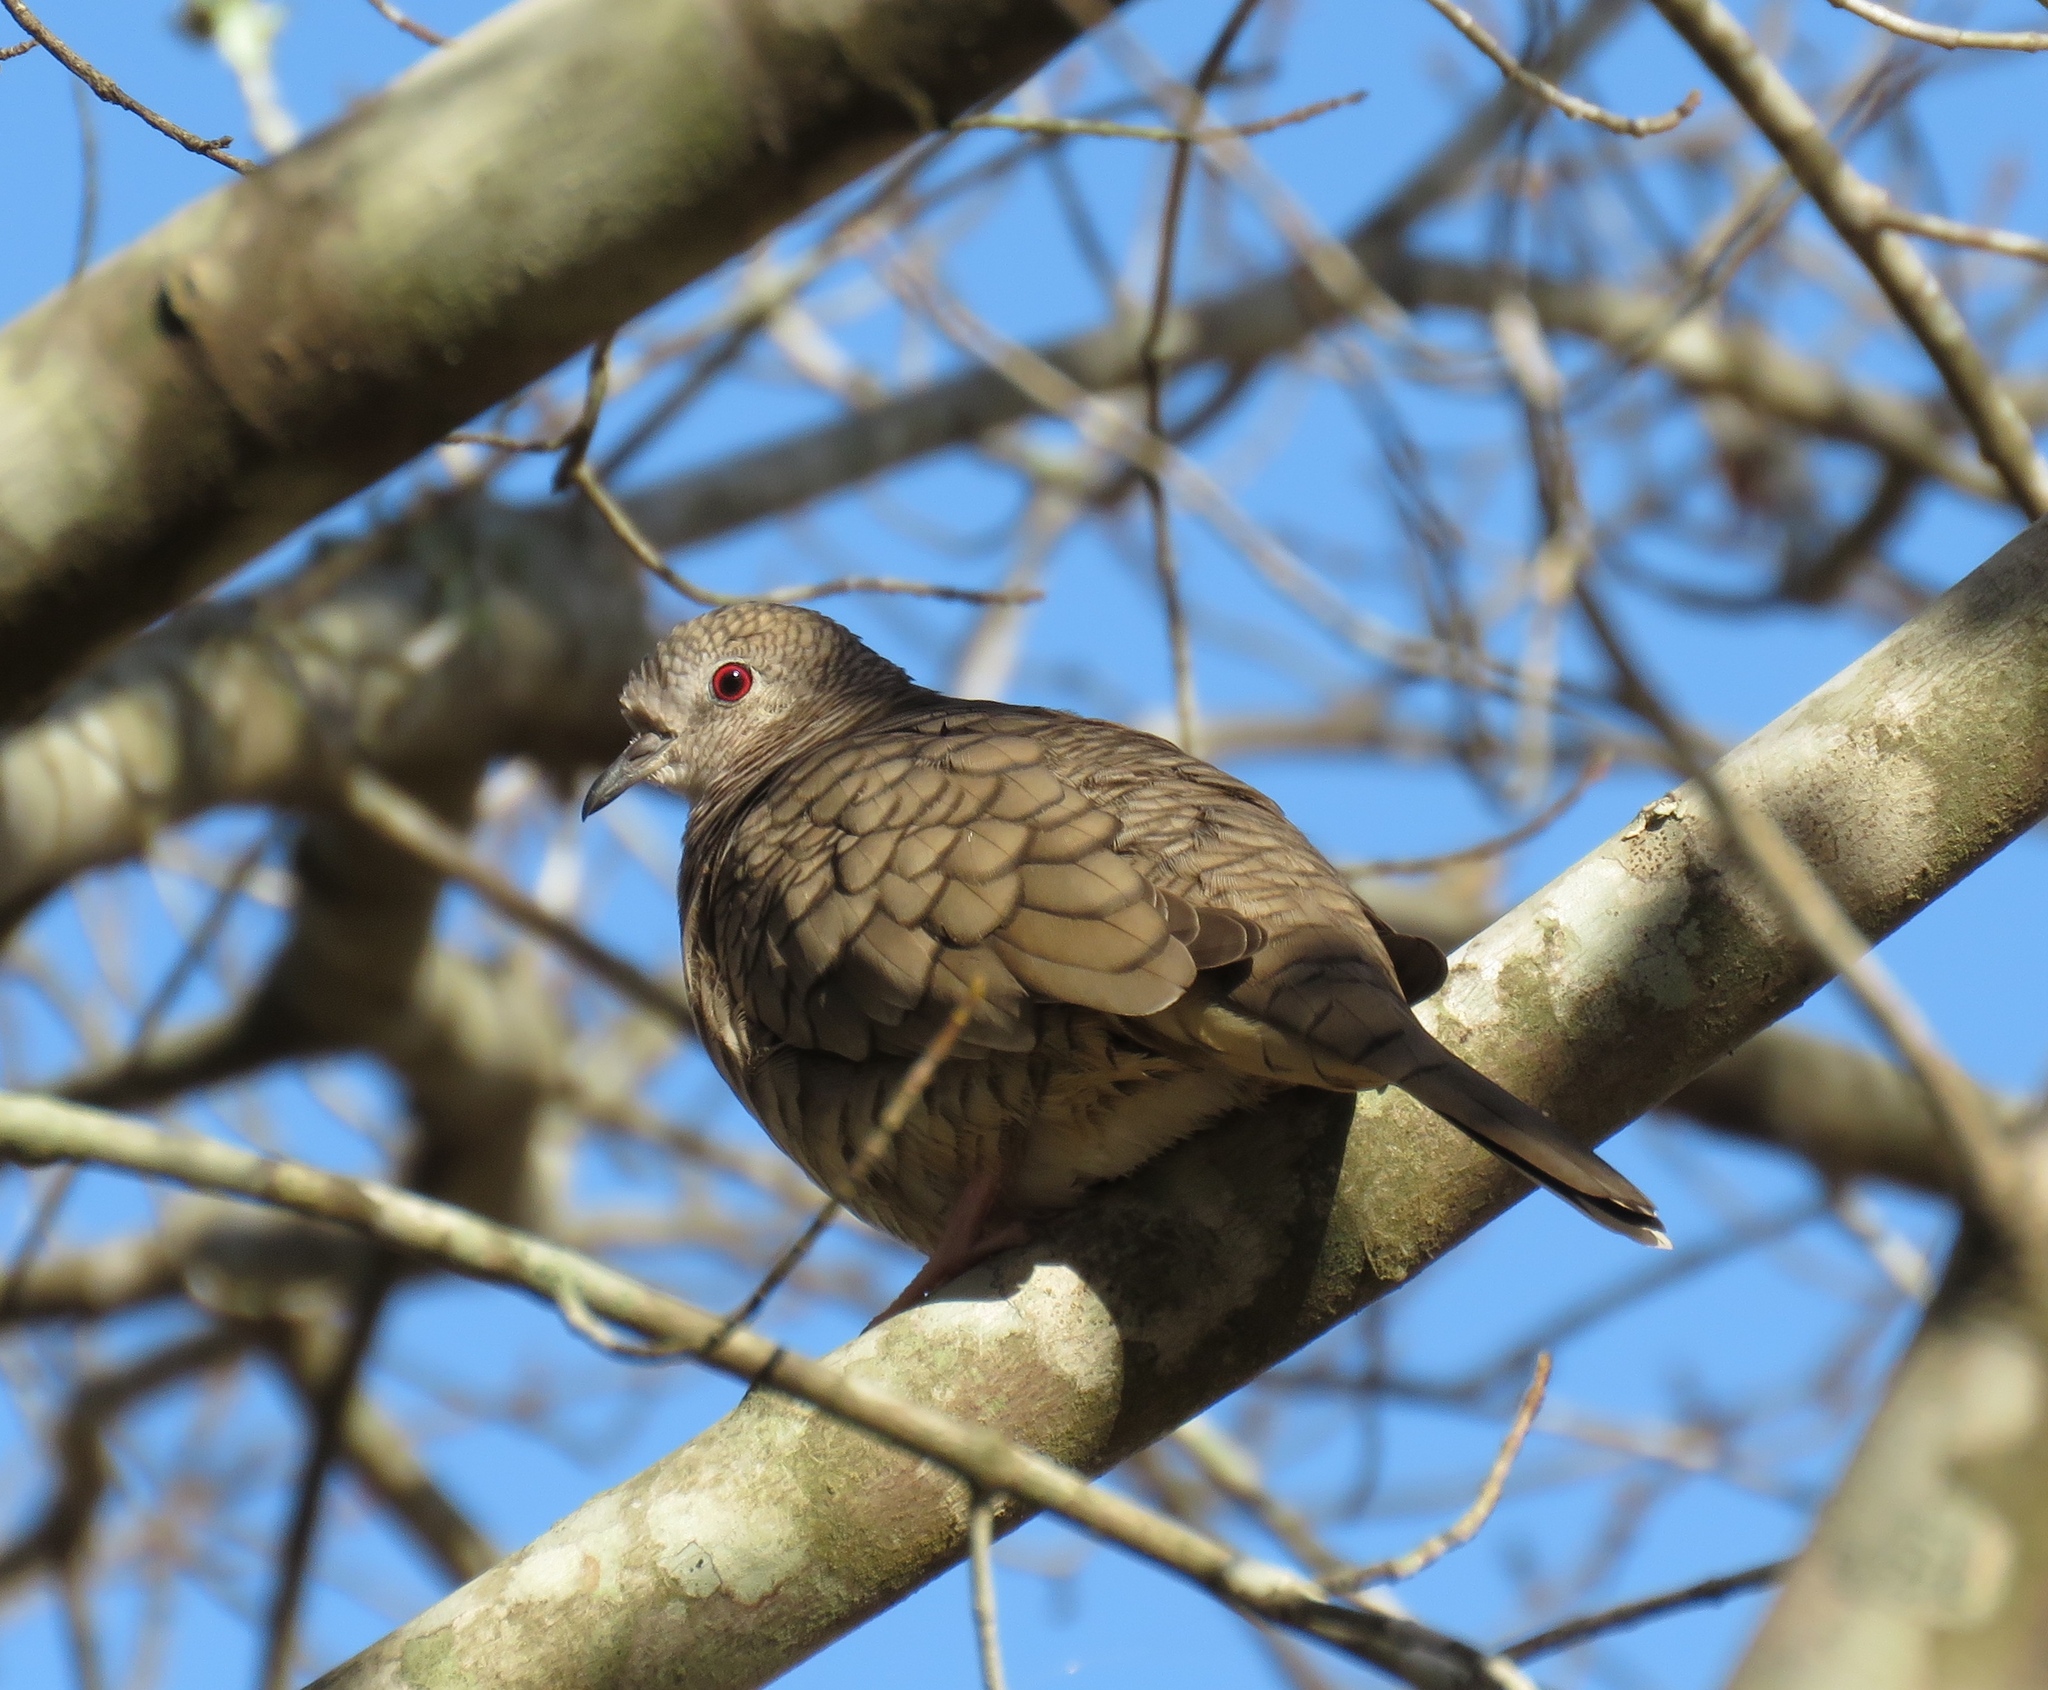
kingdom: Animalia
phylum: Chordata
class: Aves
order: Columbiformes
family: Columbidae
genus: Columbina
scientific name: Columbina inca
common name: Inca dove
